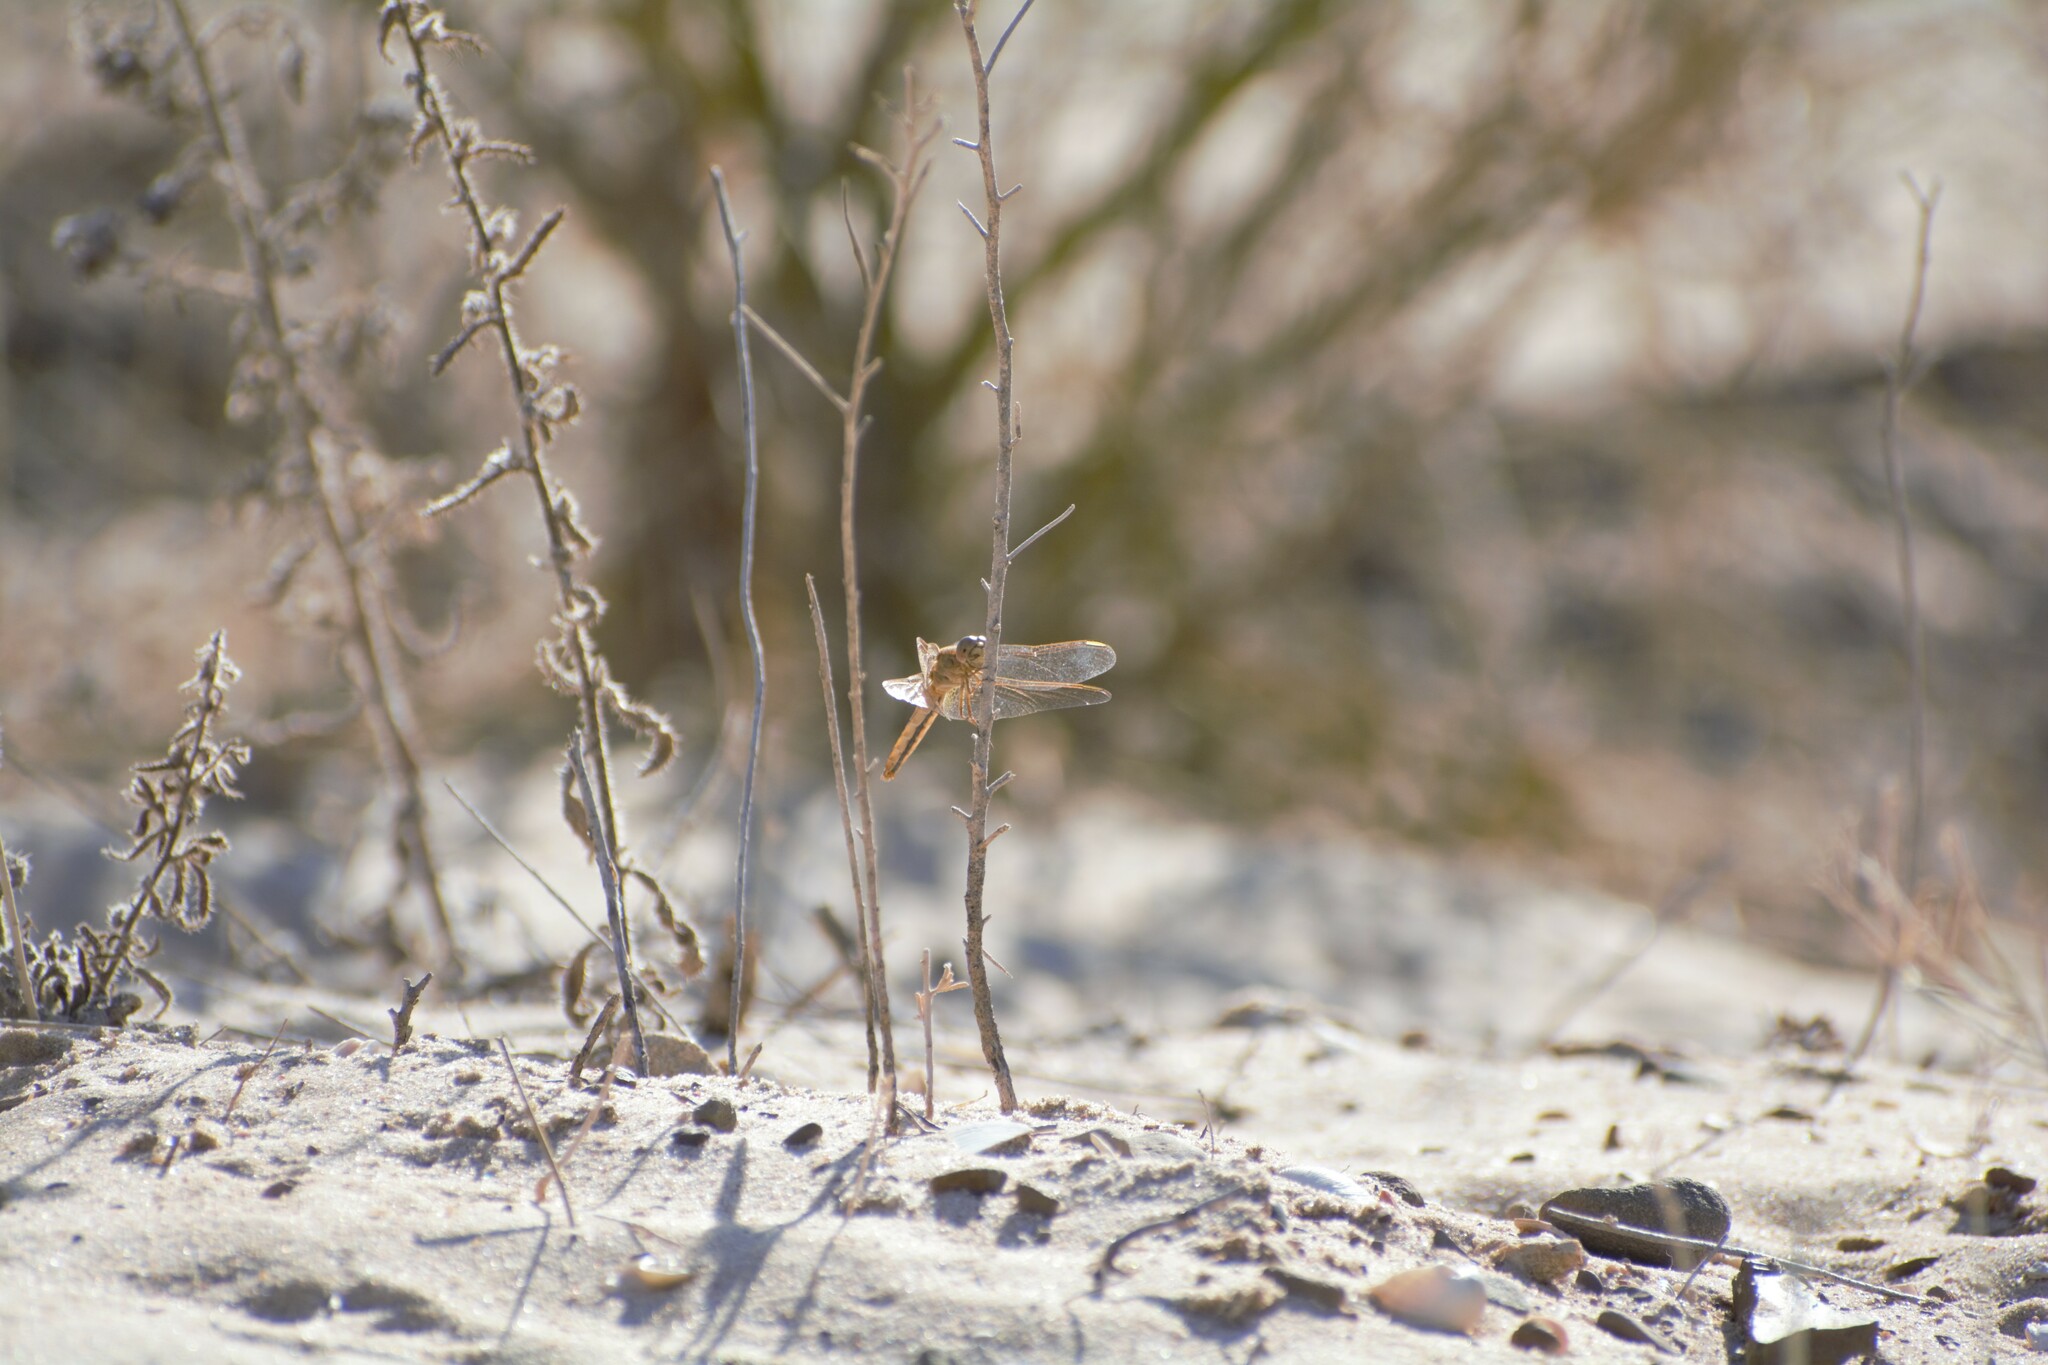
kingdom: Animalia
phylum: Arthropoda
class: Insecta
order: Odonata
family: Libellulidae
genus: Crocothemis
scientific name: Crocothemis erythraea
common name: Scarlet dragonfly
